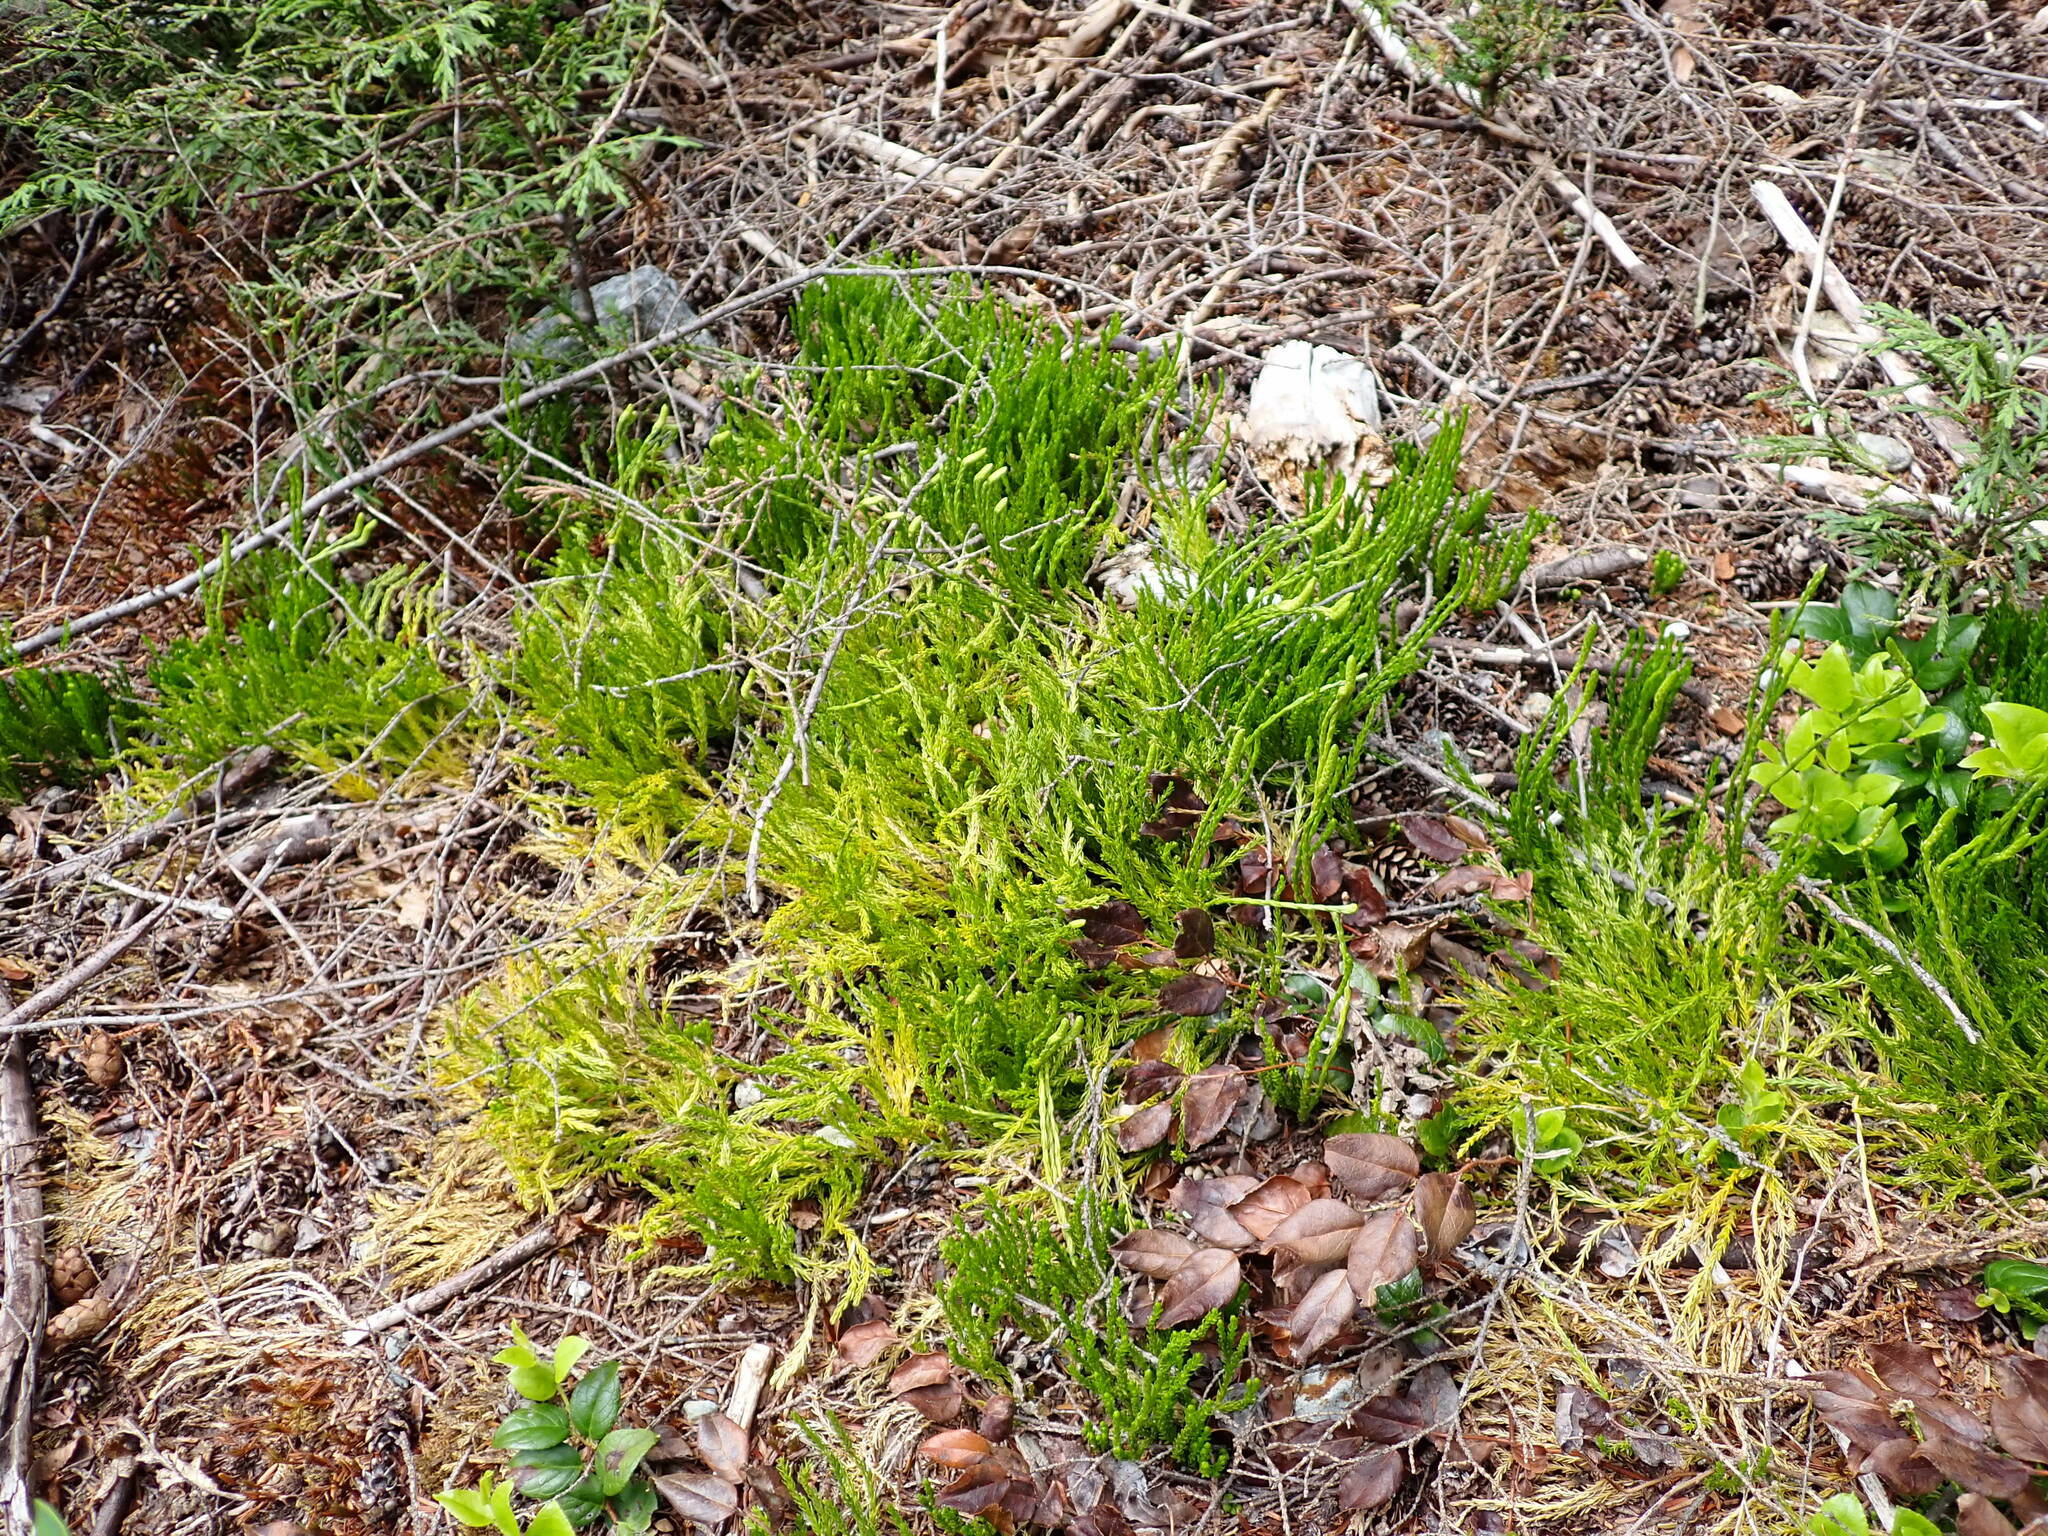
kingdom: Plantae
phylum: Tracheophyta
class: Lycopodiopsida
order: Lycopodiales
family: Lycopodiaceae
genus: Diphasiastrum
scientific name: Diphasiastrum sitchense
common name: Alaska clubmoss
